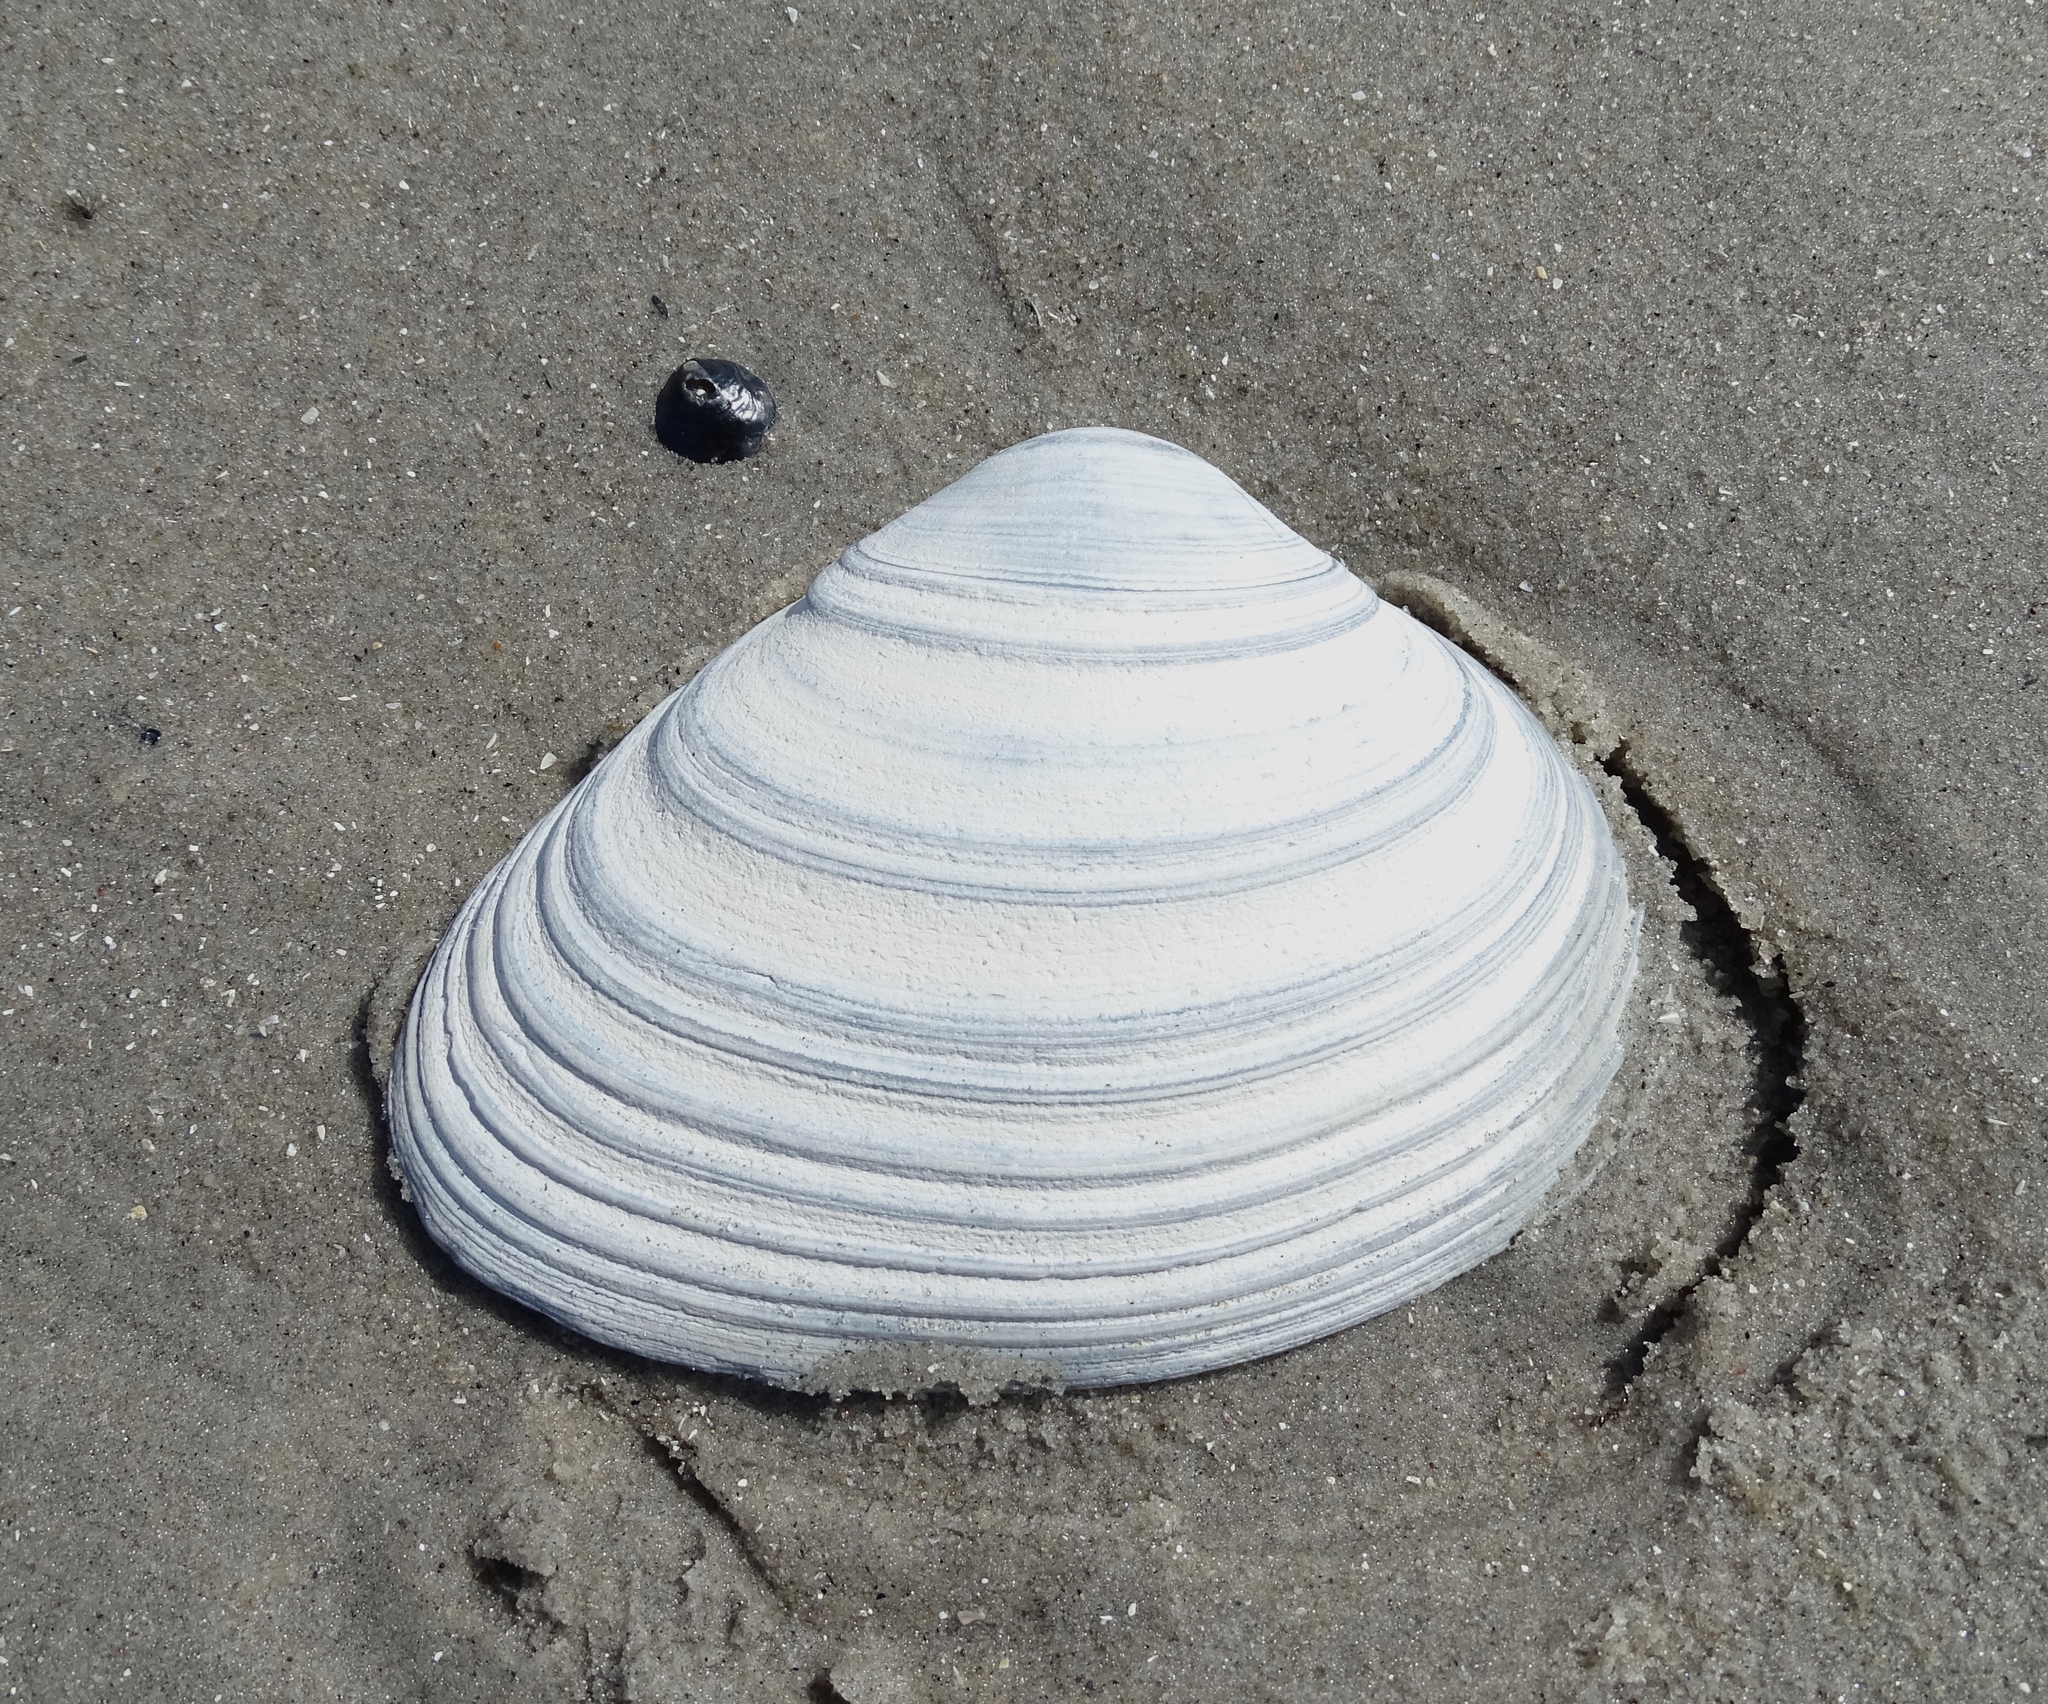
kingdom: Animalia
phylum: Mollusca
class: Bivalvia
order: Venerida
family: Mactridae
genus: Spisula
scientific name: Spisula solidissima
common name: Atlantic surf clam
